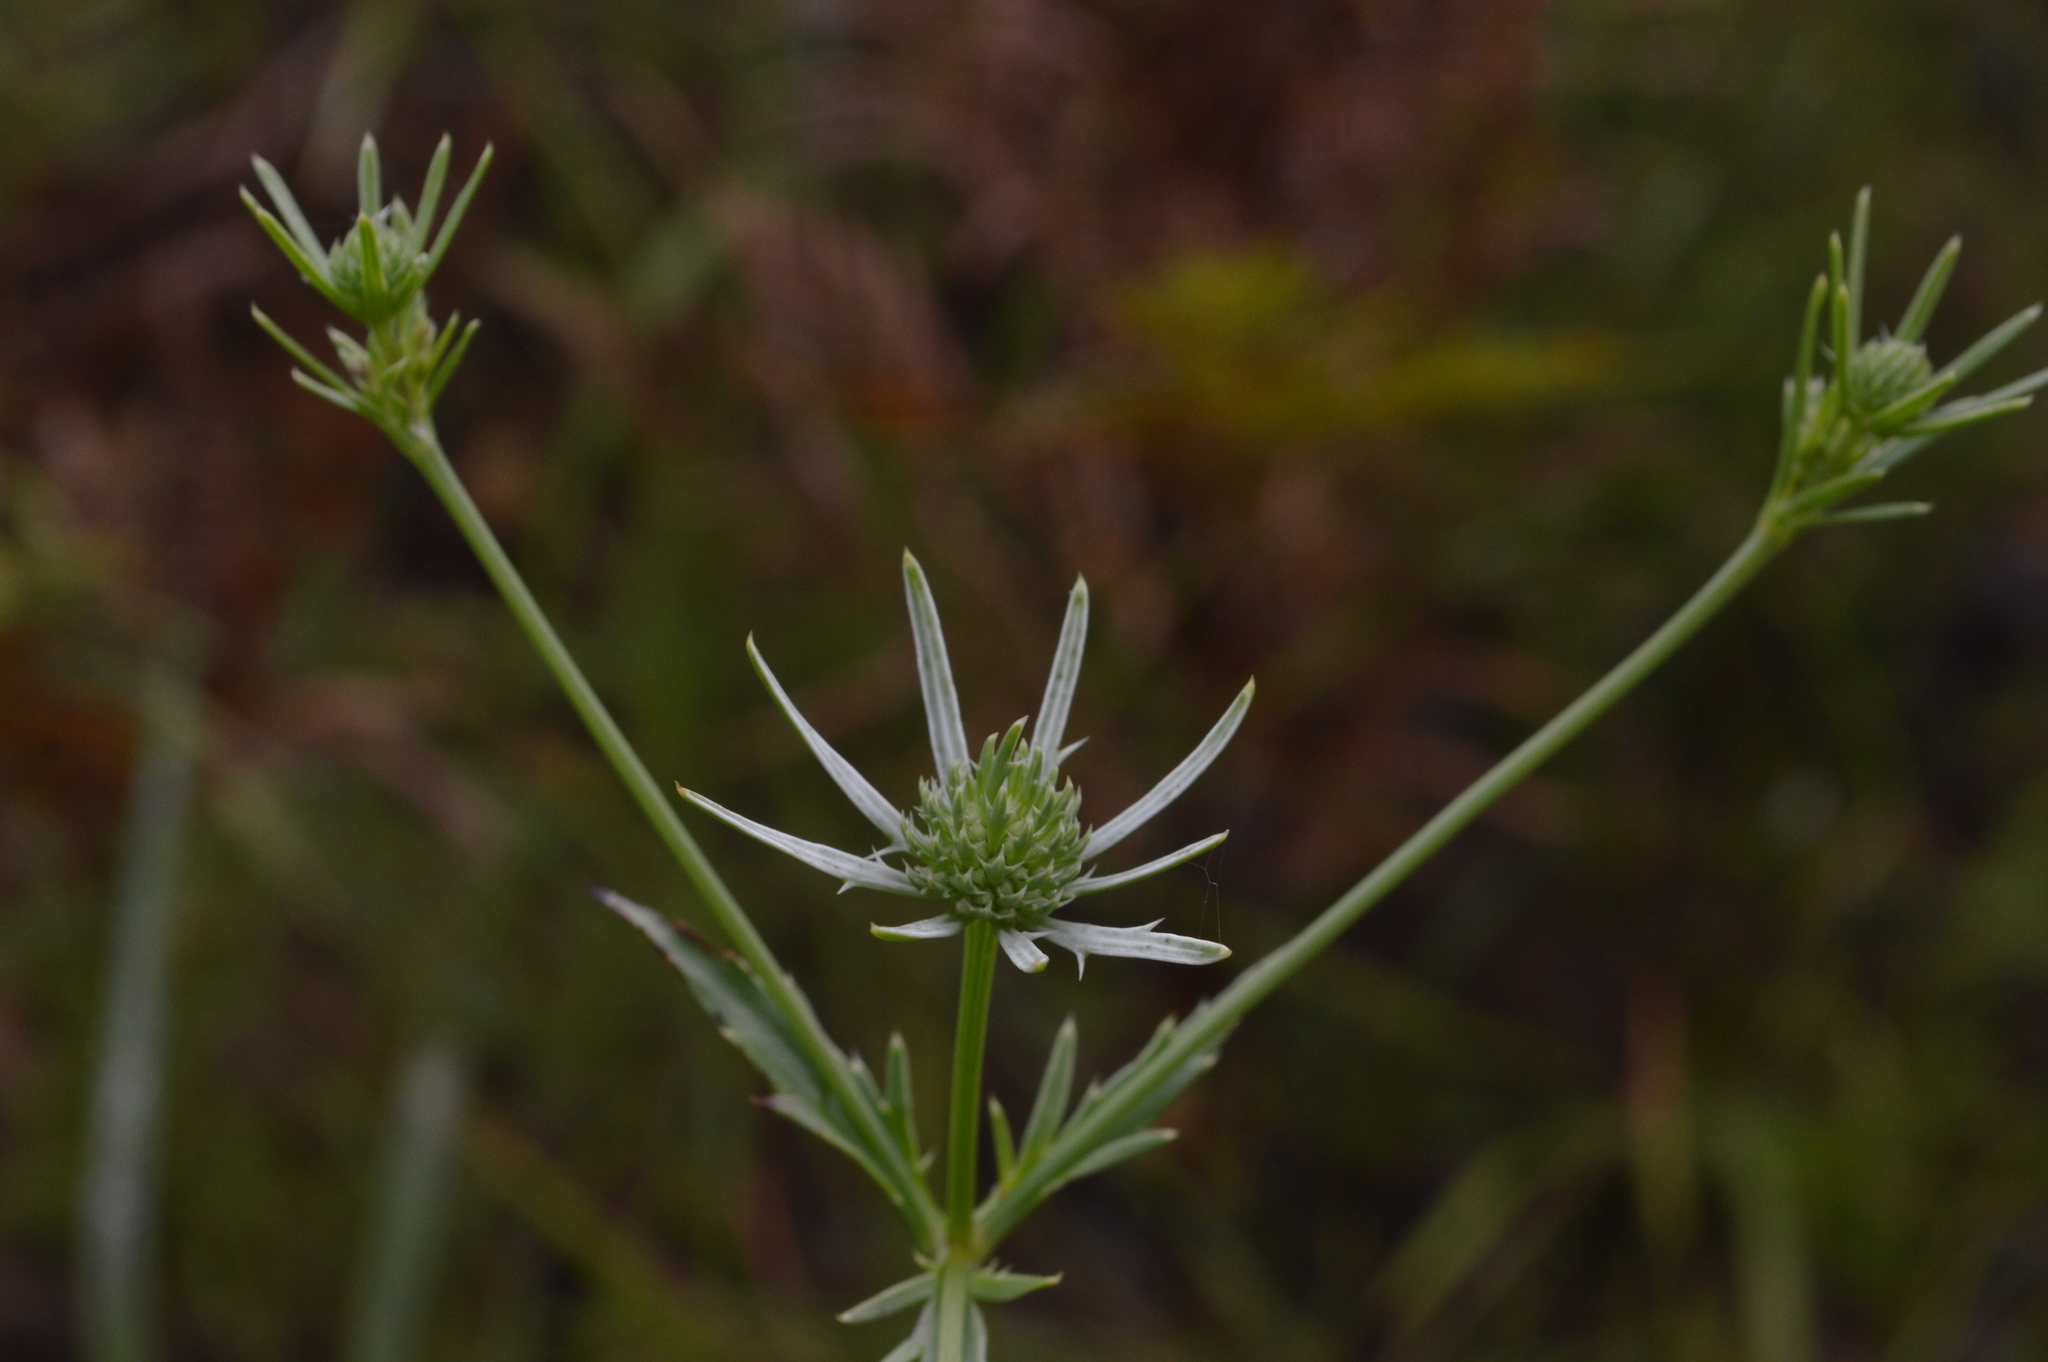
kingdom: Plantae
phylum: Tracheophyta
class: Magnoliopsida
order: Apiales
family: Apiaceae
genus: Eryngium
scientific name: Eryngium integrifolium
